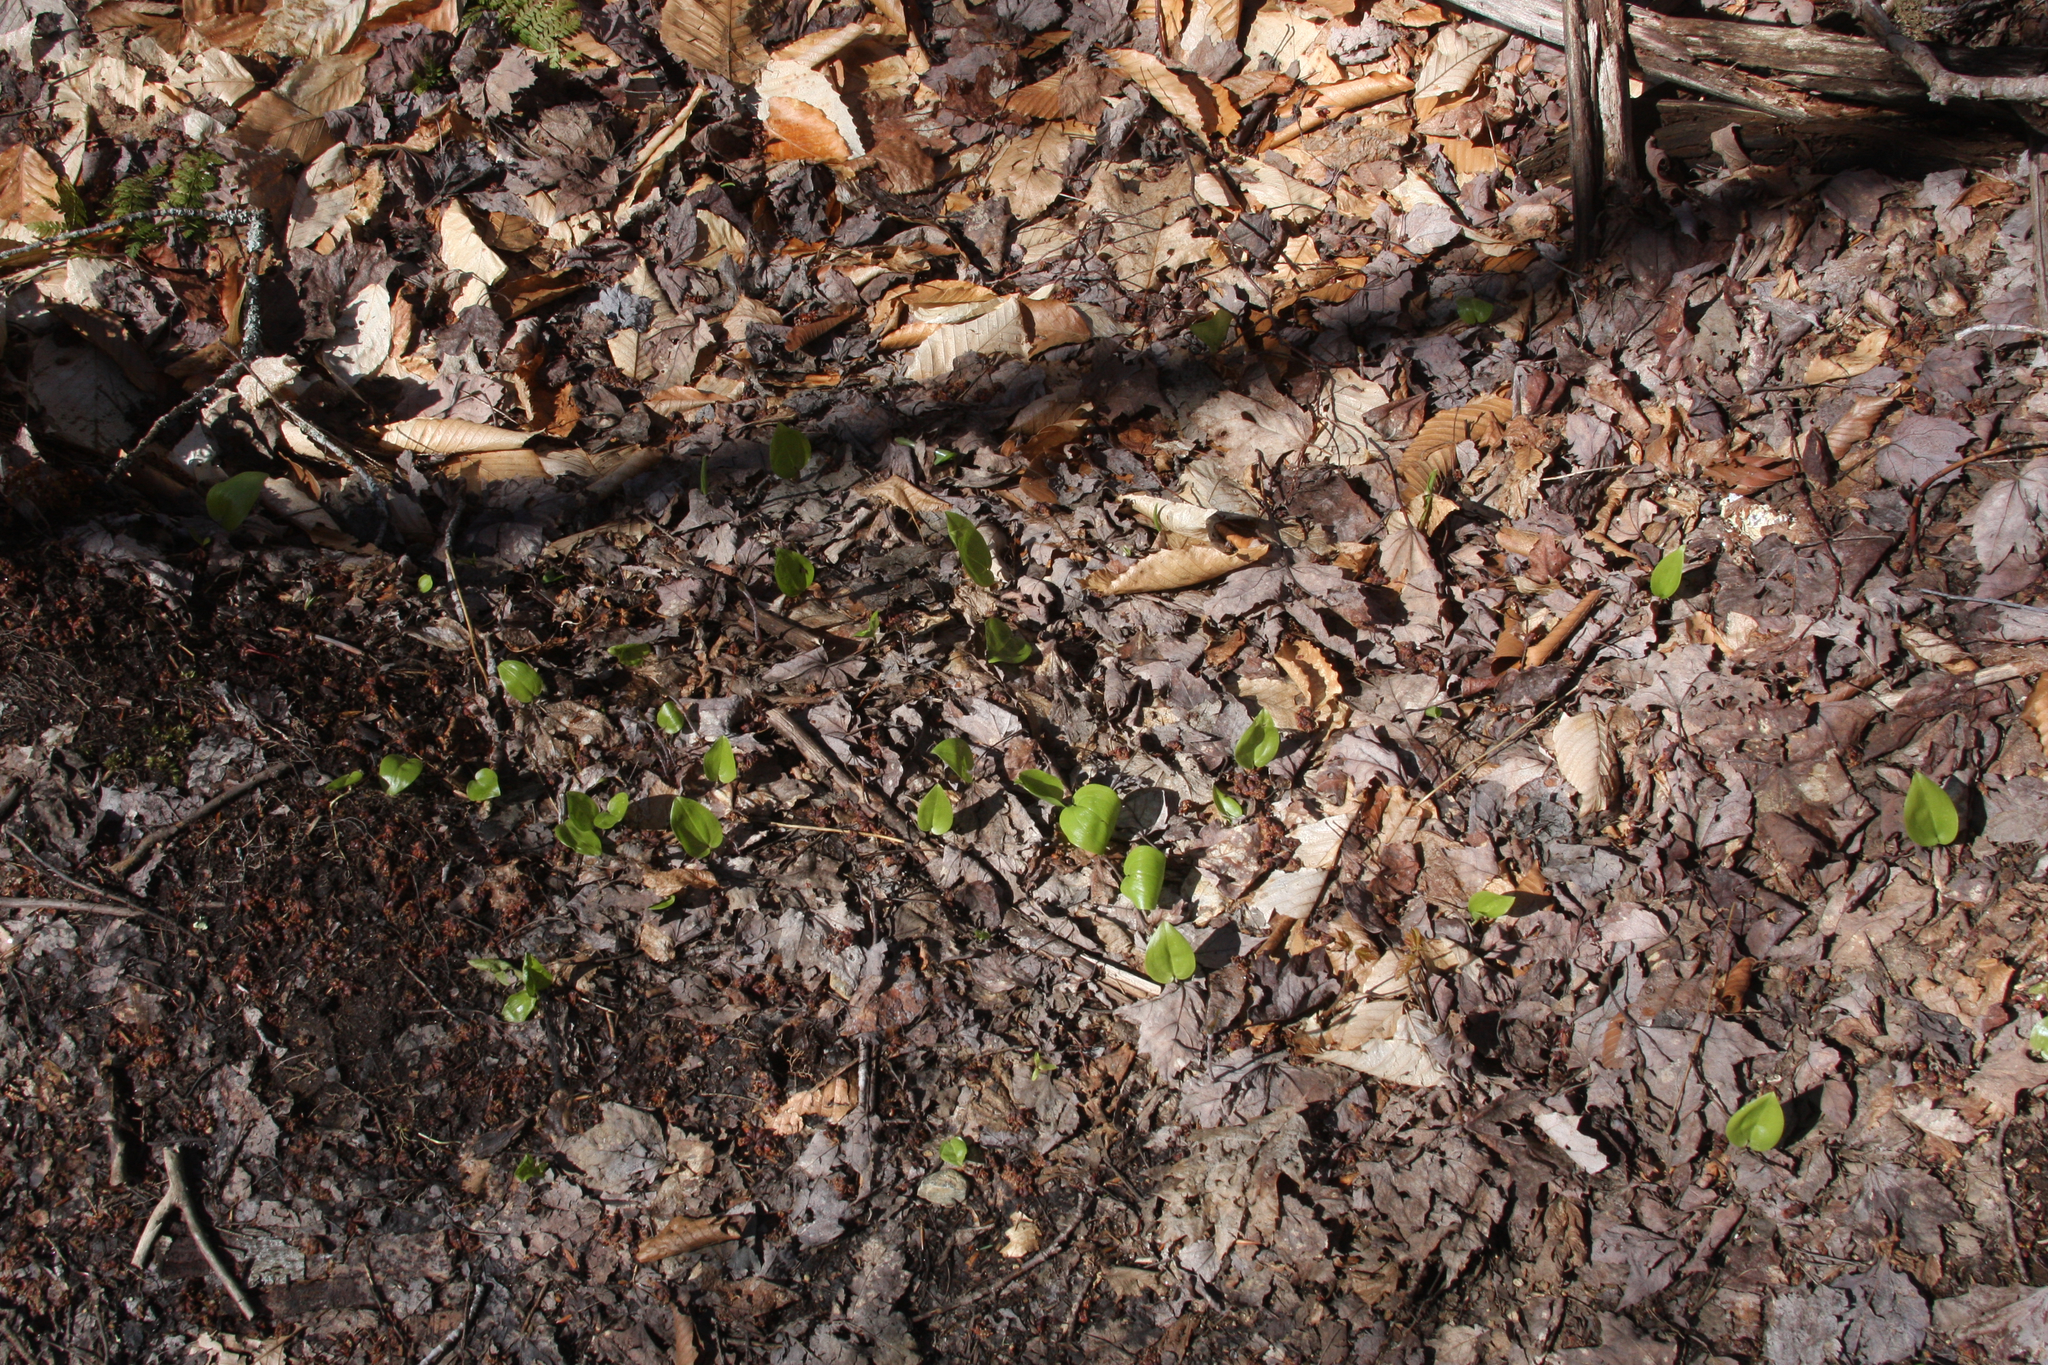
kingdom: Plantae
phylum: Tracheophyta
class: Liliopsida
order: Asparagales
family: Asparagaceae
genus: Maianthemum
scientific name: Maianthemum canadense
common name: False lily-of-the-valley
